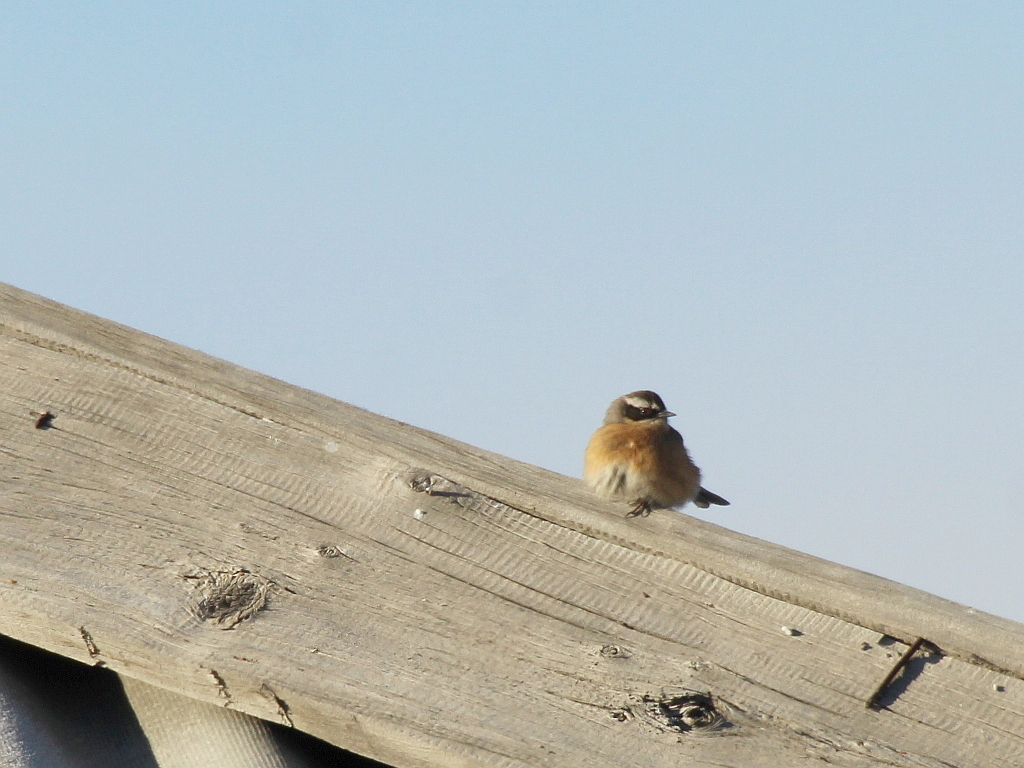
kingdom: Animalia
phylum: Chordata
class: Aves
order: Passeriformes
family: Prunellidae
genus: Prunella
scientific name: Prunella fulvescens
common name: Brown accentor
